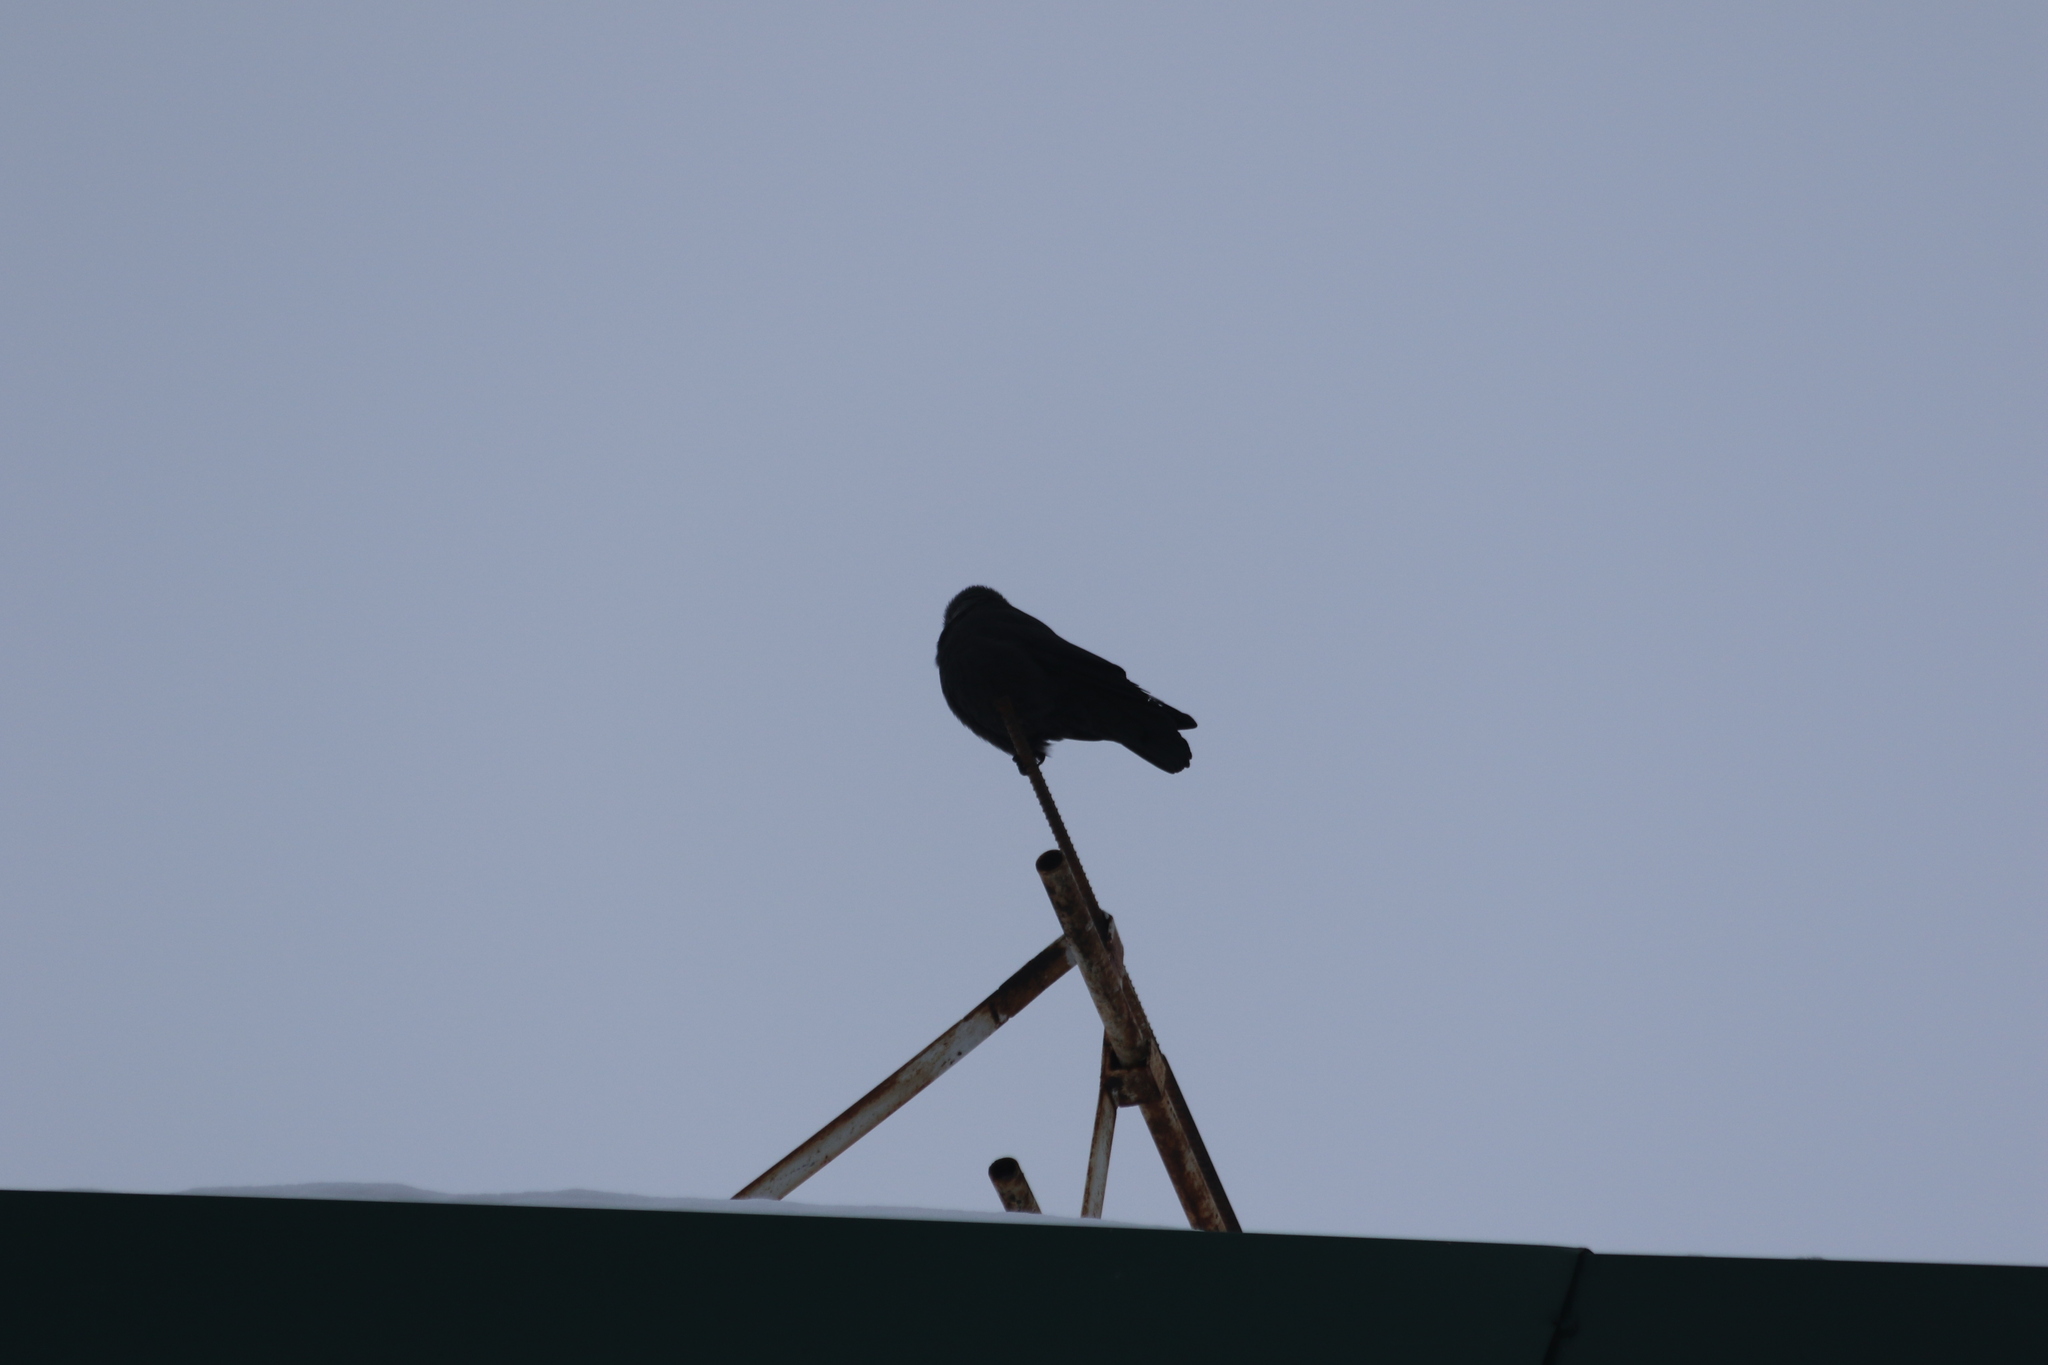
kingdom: Animalia
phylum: Chordata
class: Aves
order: Passeriformes
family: Corvidae
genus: Coloeus
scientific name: Coloeus monedula
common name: Western jackdaw
